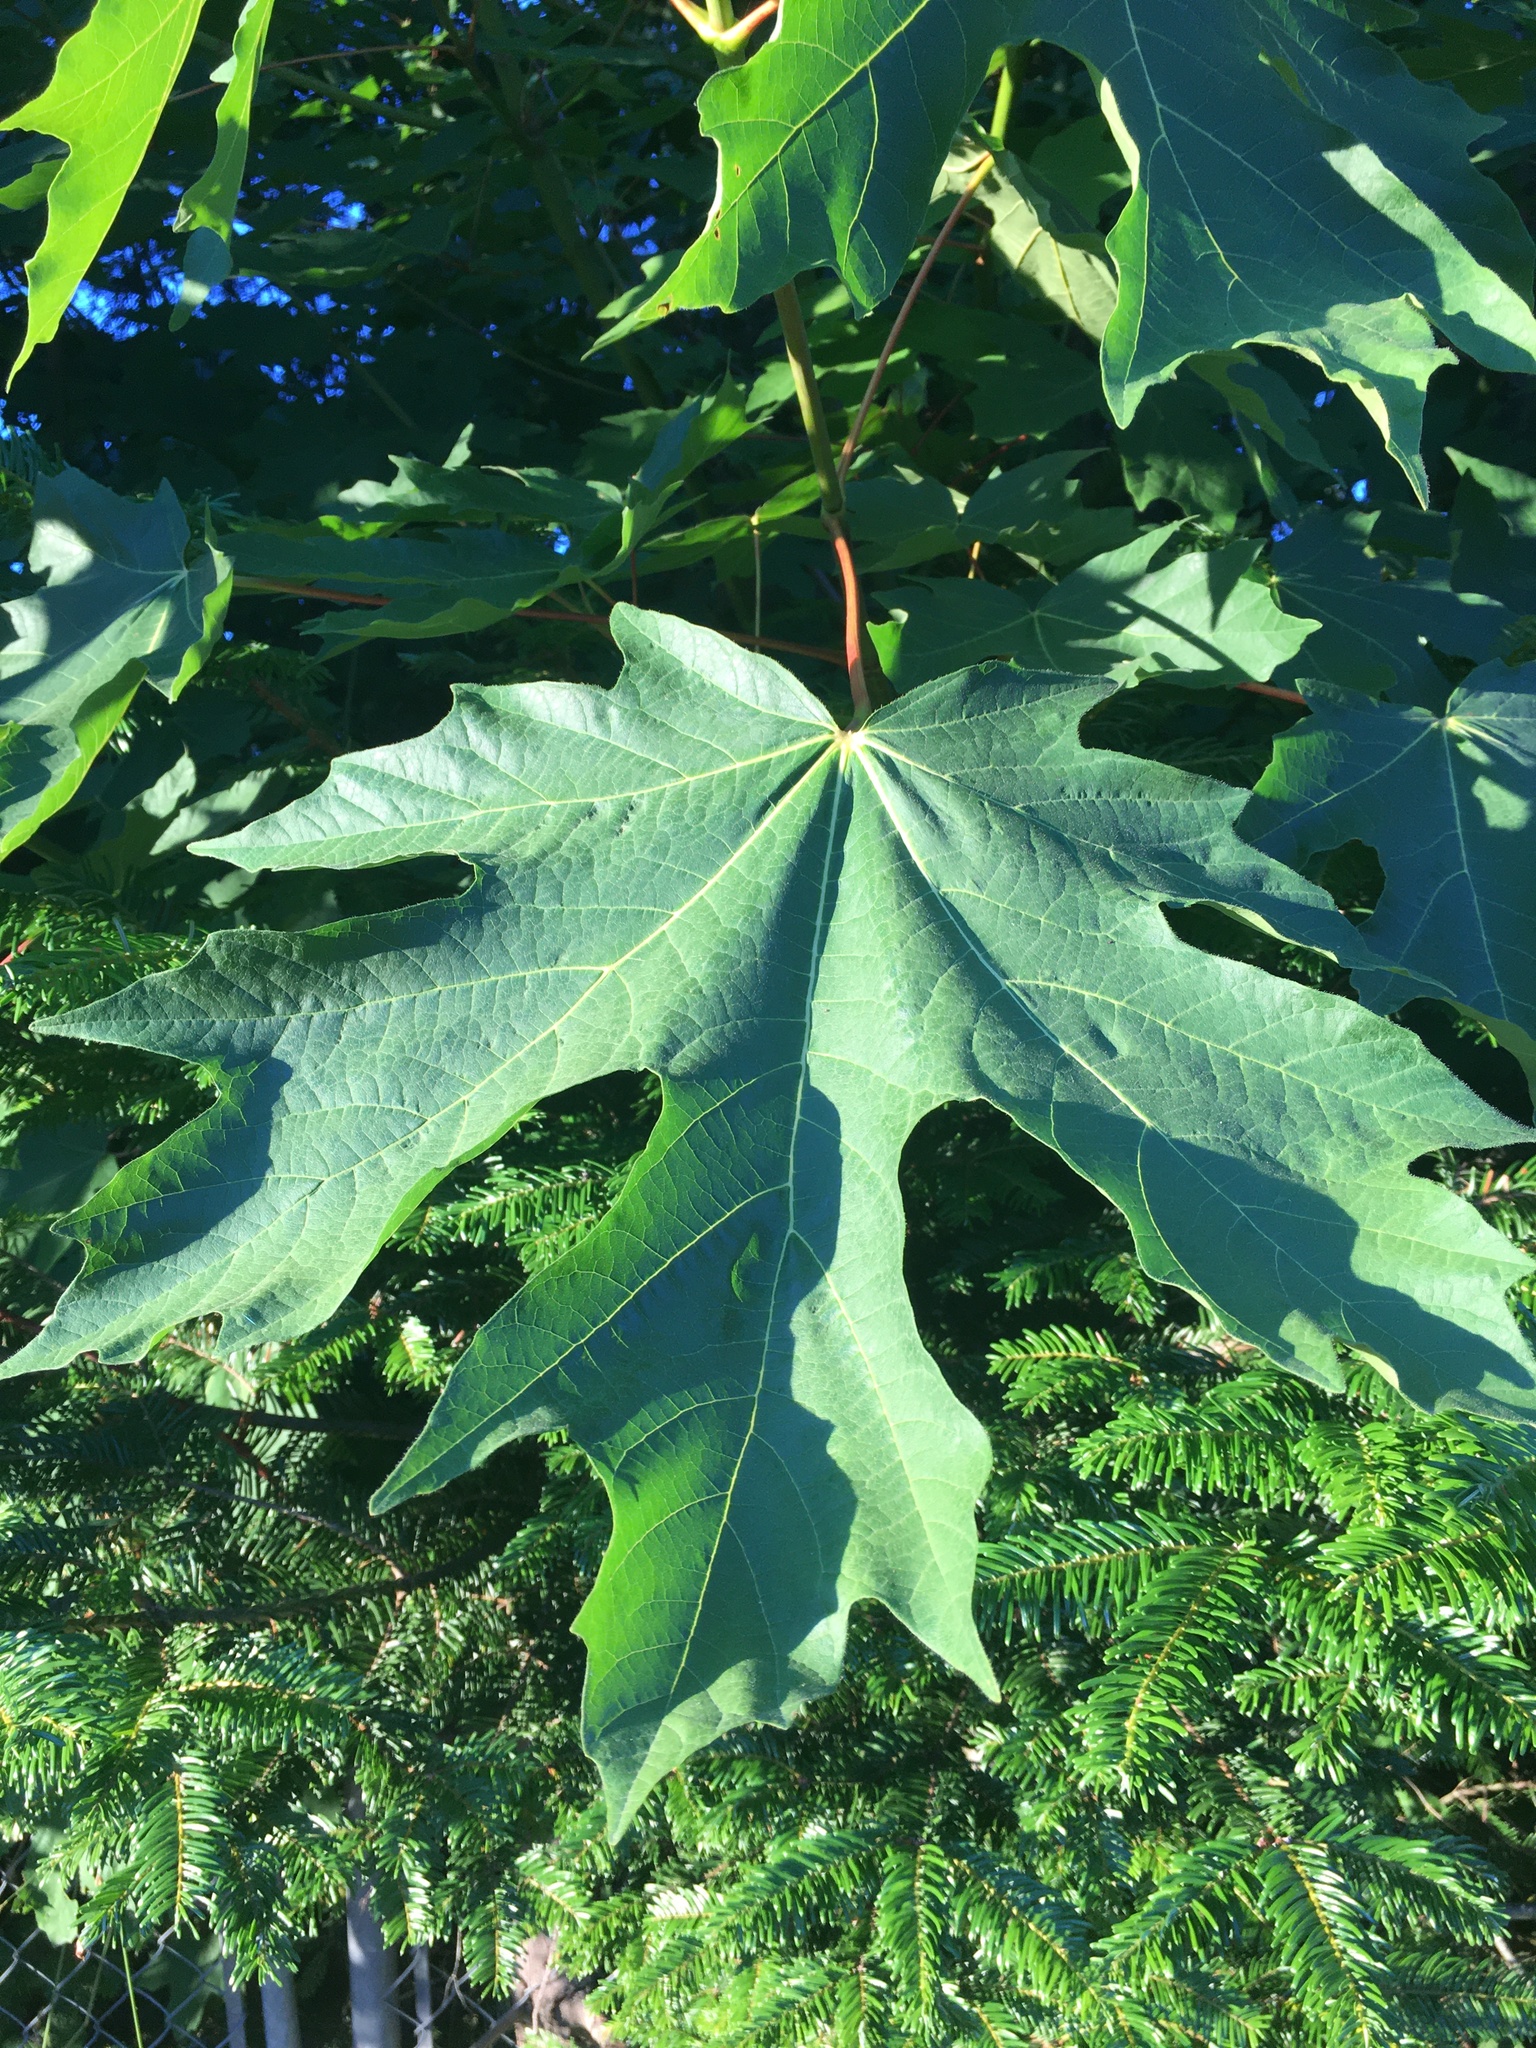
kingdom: Plantae
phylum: Tracheophyta
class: Magnoliopsida
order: Sapindales
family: Sapindaceae
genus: Acer
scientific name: Acer macrophyllum
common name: Oregon maple
